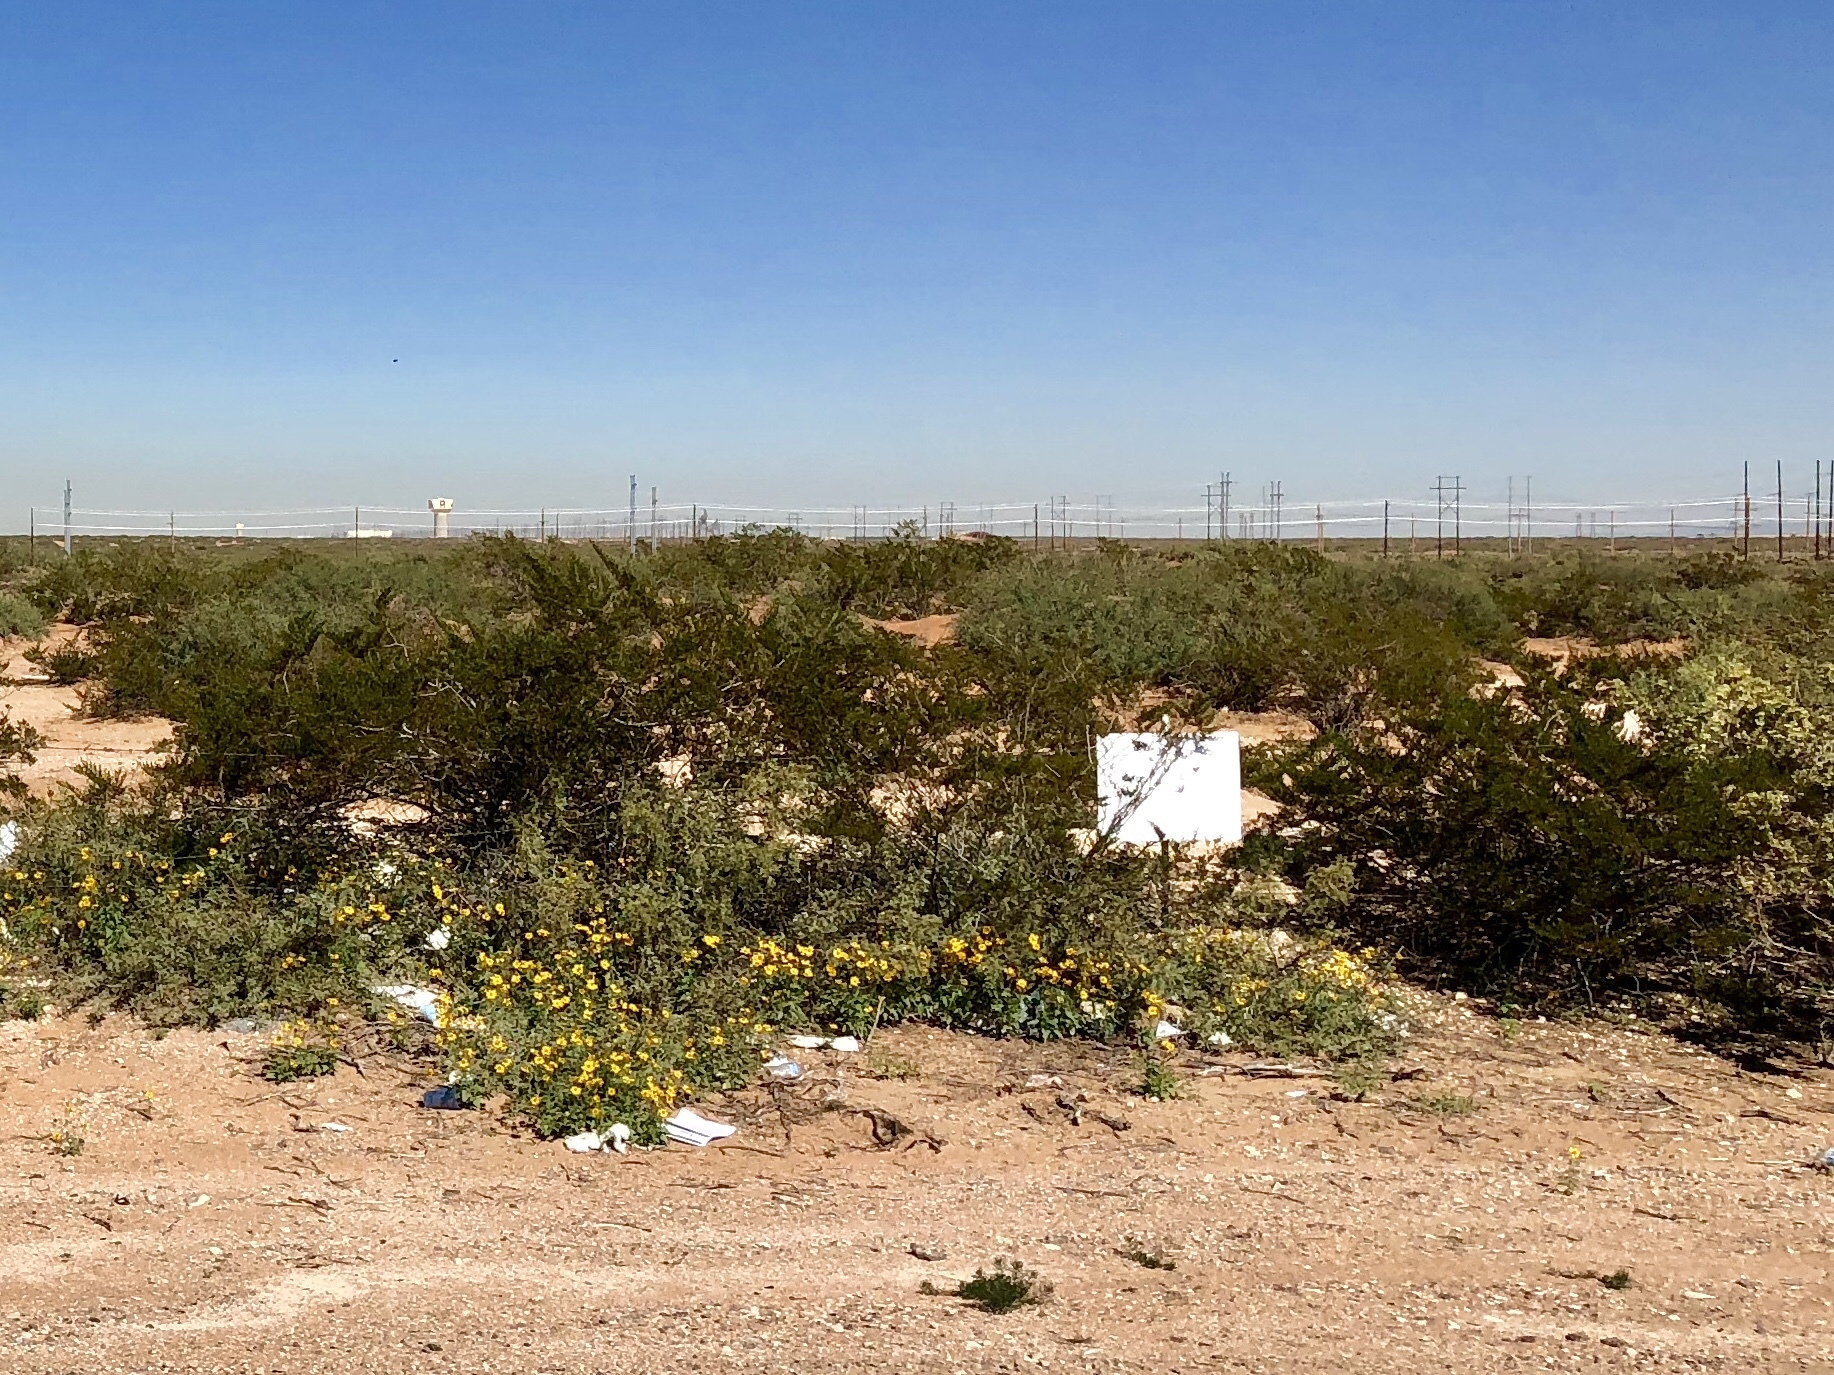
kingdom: Plantae
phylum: Tracheophyta
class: Magnoliopsida
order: Zygophyllales
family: Zygophyllaceae
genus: Larrea
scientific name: Larrea tridentata
